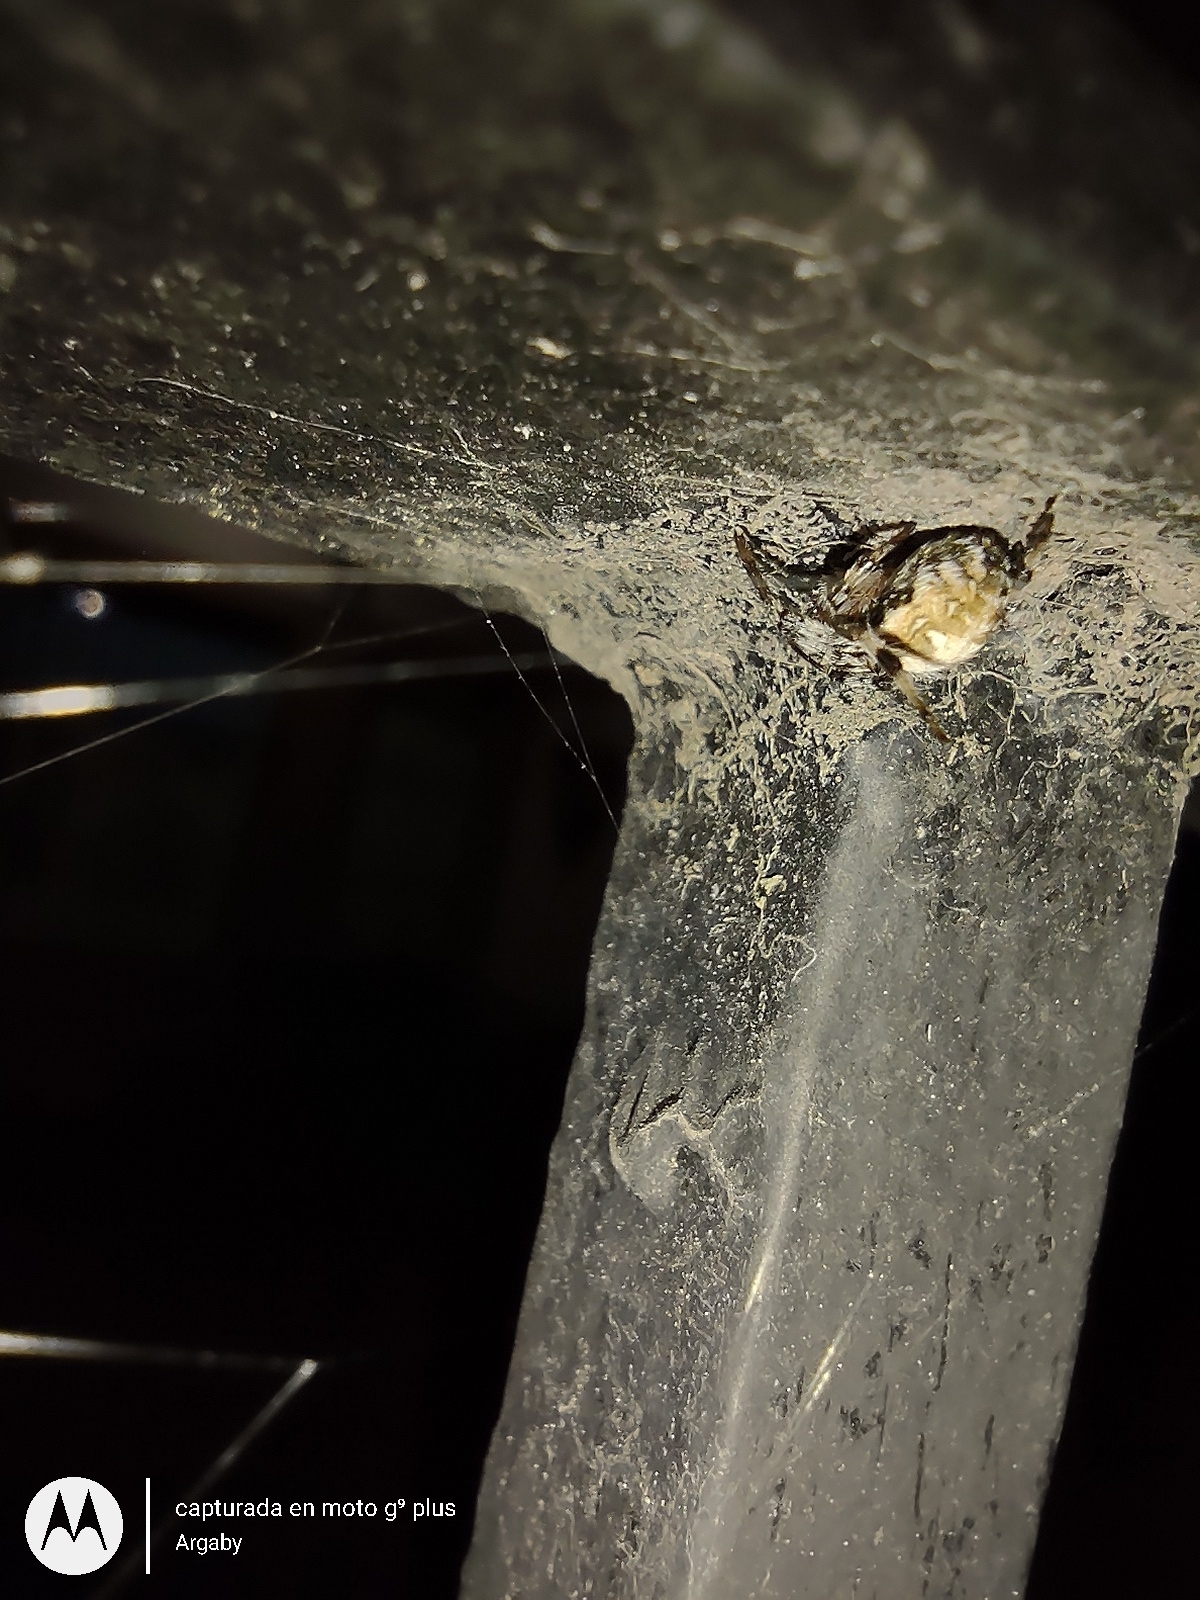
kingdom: Animalia
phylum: Arthropoda
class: Arachnida
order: Araneae
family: Araneidae
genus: Metepeira
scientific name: Metepeira
